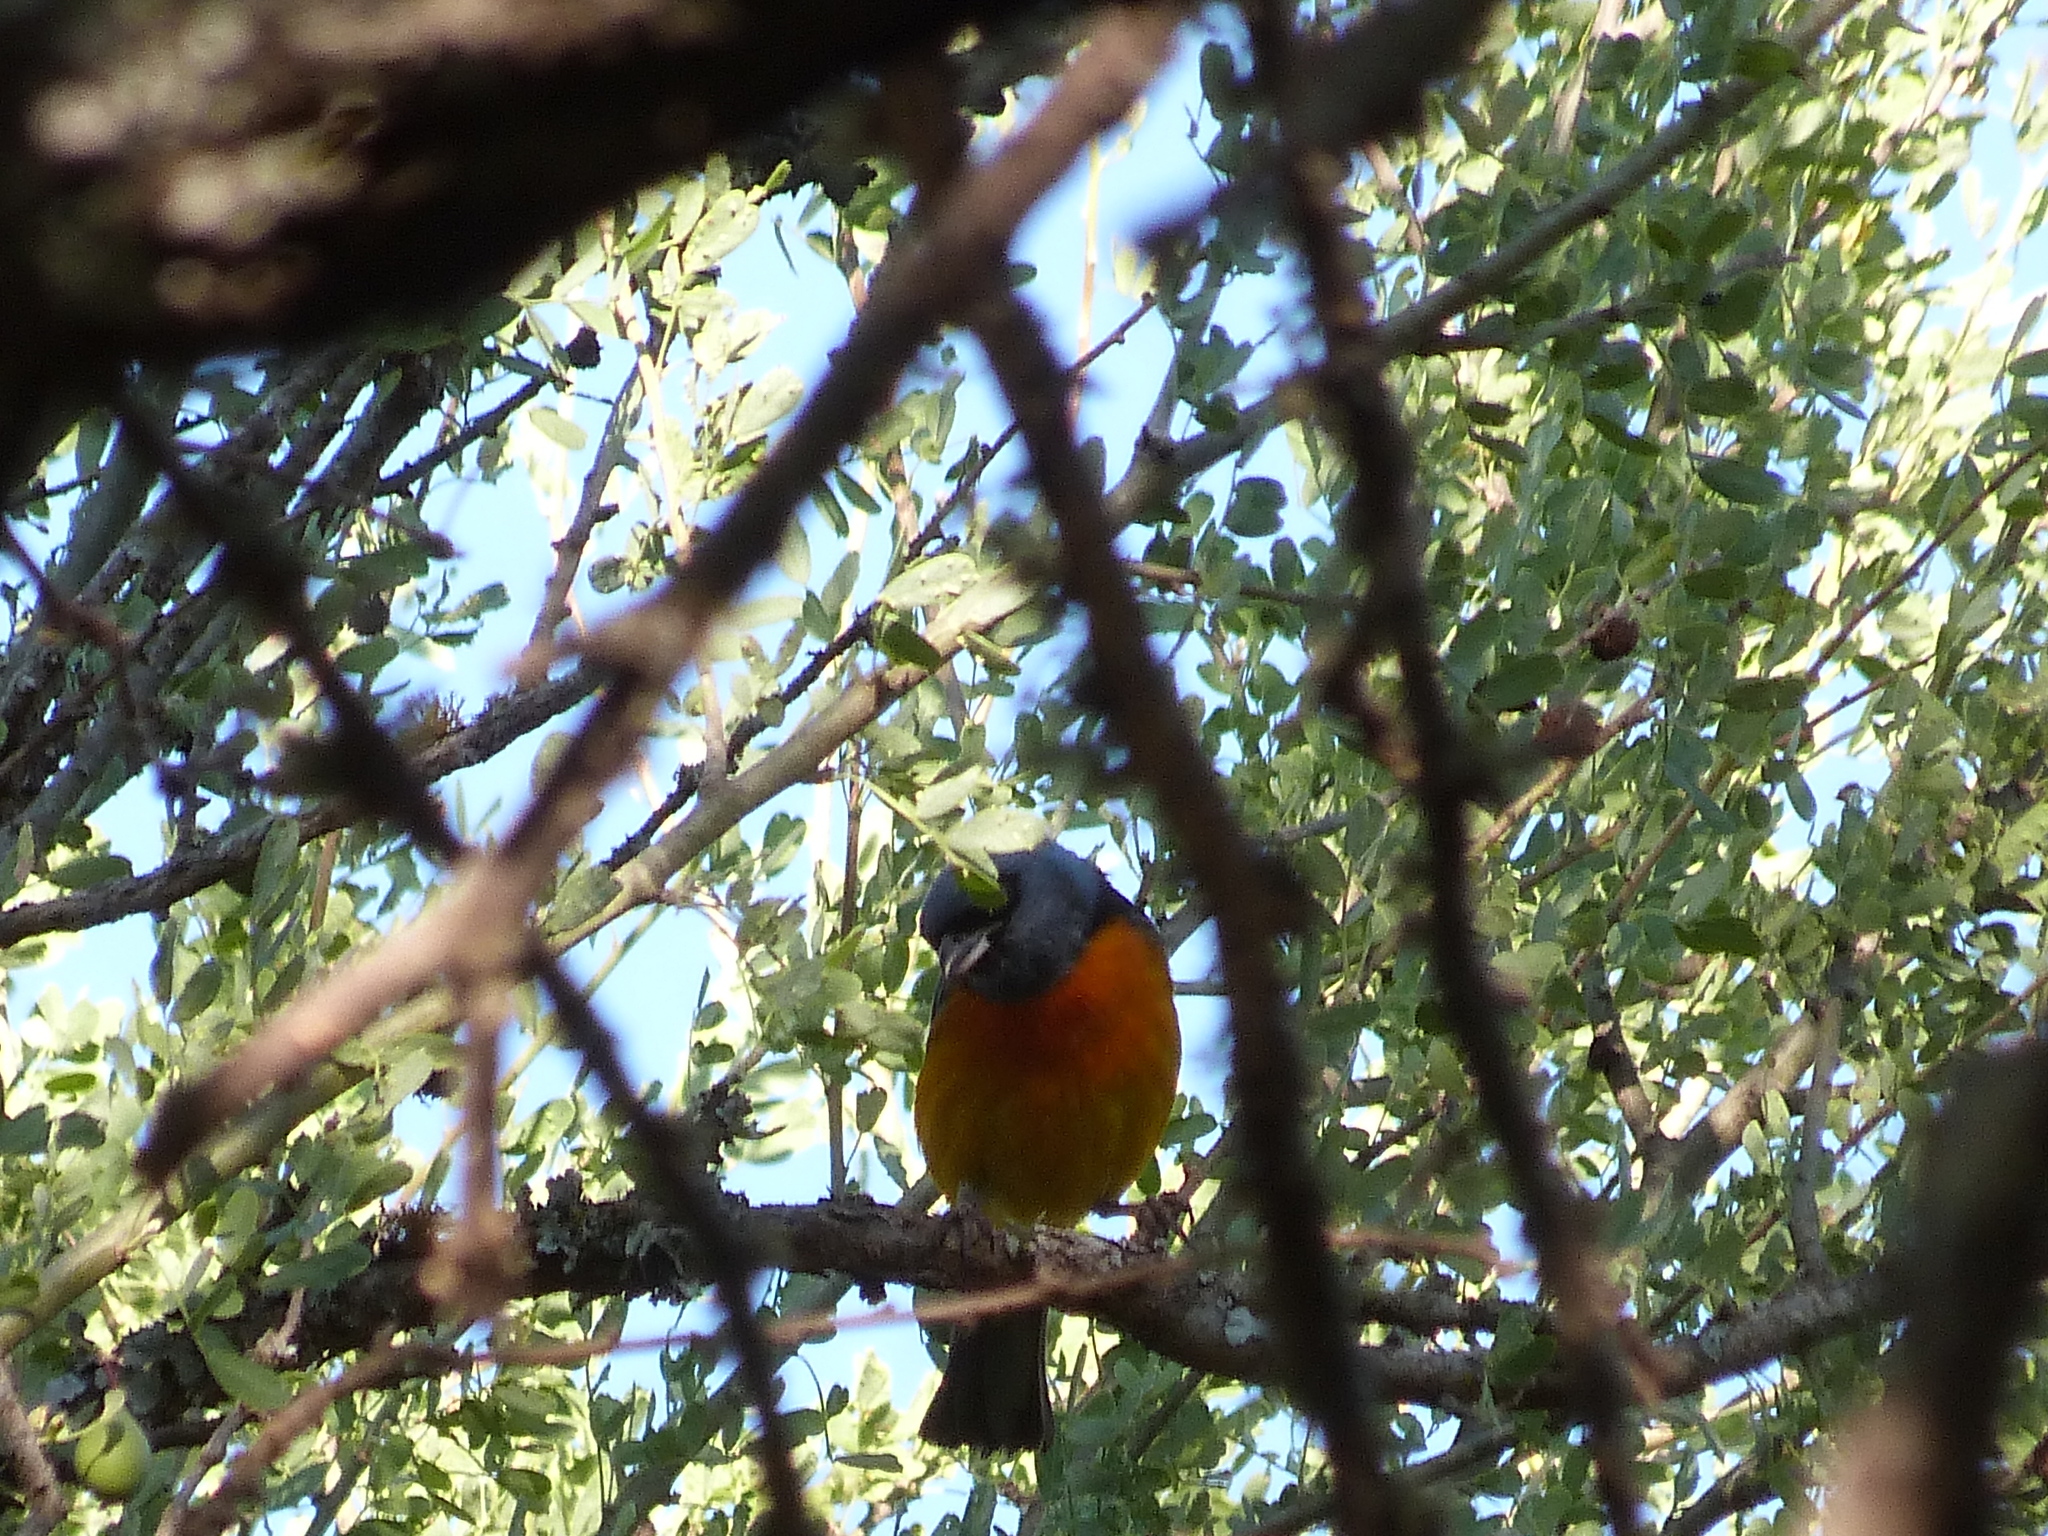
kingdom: Animalia
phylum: Chordata
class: Aves
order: Passeriformes
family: Thraupidae
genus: Rauenia
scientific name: Rauenia bonariensis
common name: Blue-and-yellow tanager
